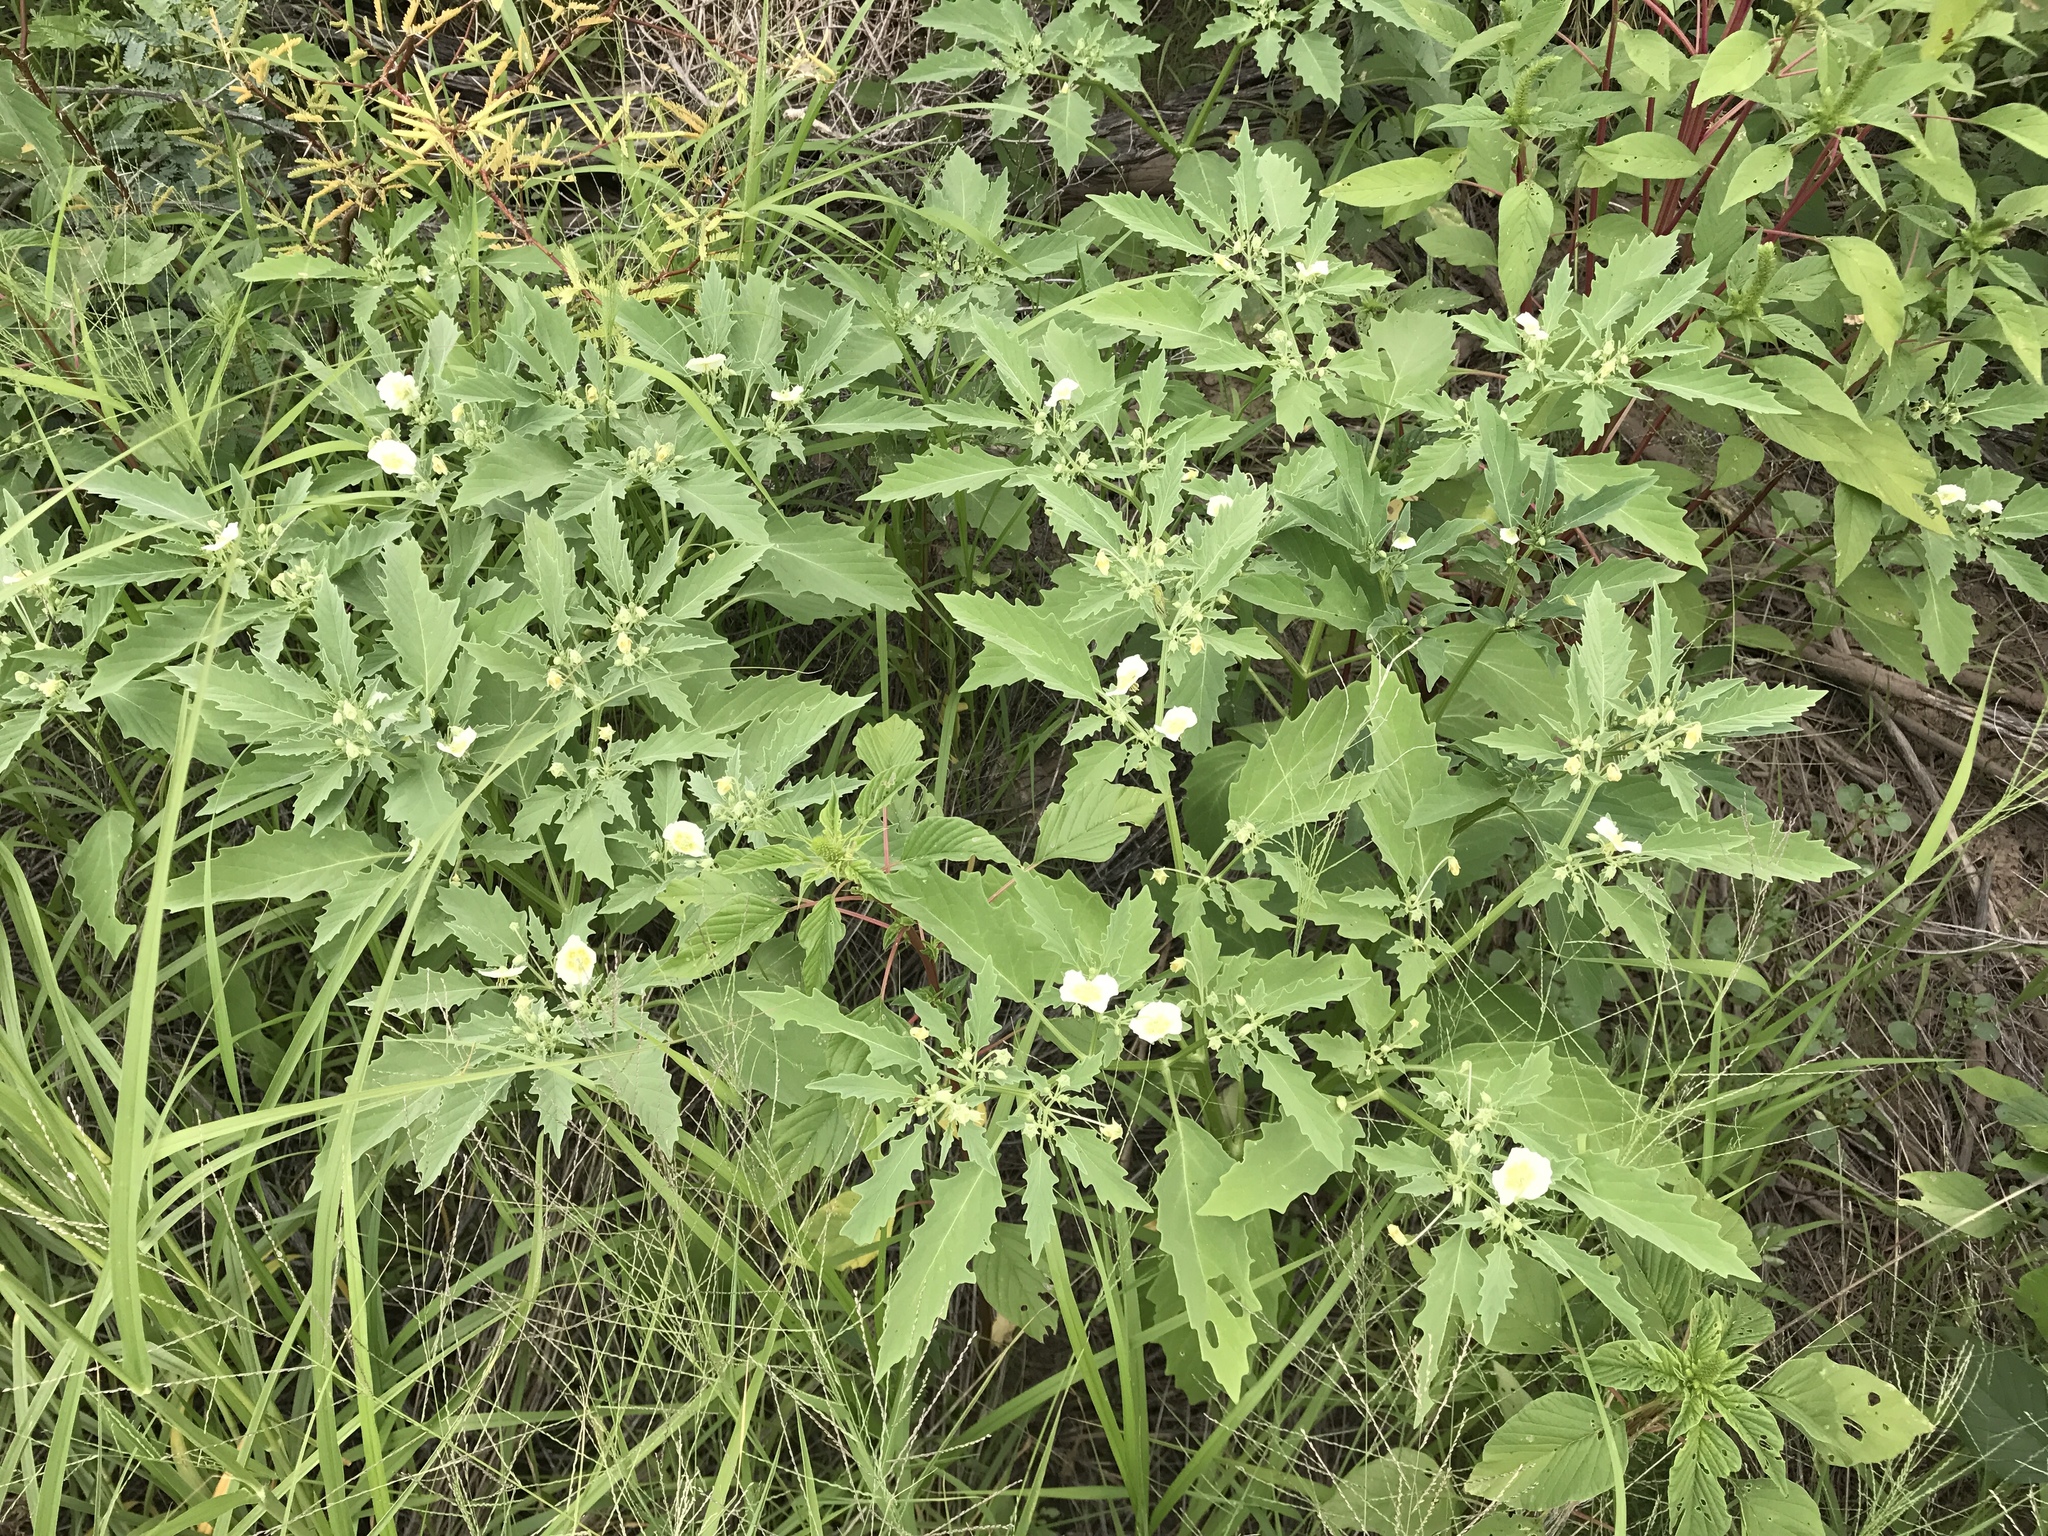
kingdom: Plantae
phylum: Tracheophyta
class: Magnoliopsida
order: Solanales
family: Solanaceae
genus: Physalis
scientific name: Physalis acutifolia
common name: Wright's ground-cherry
